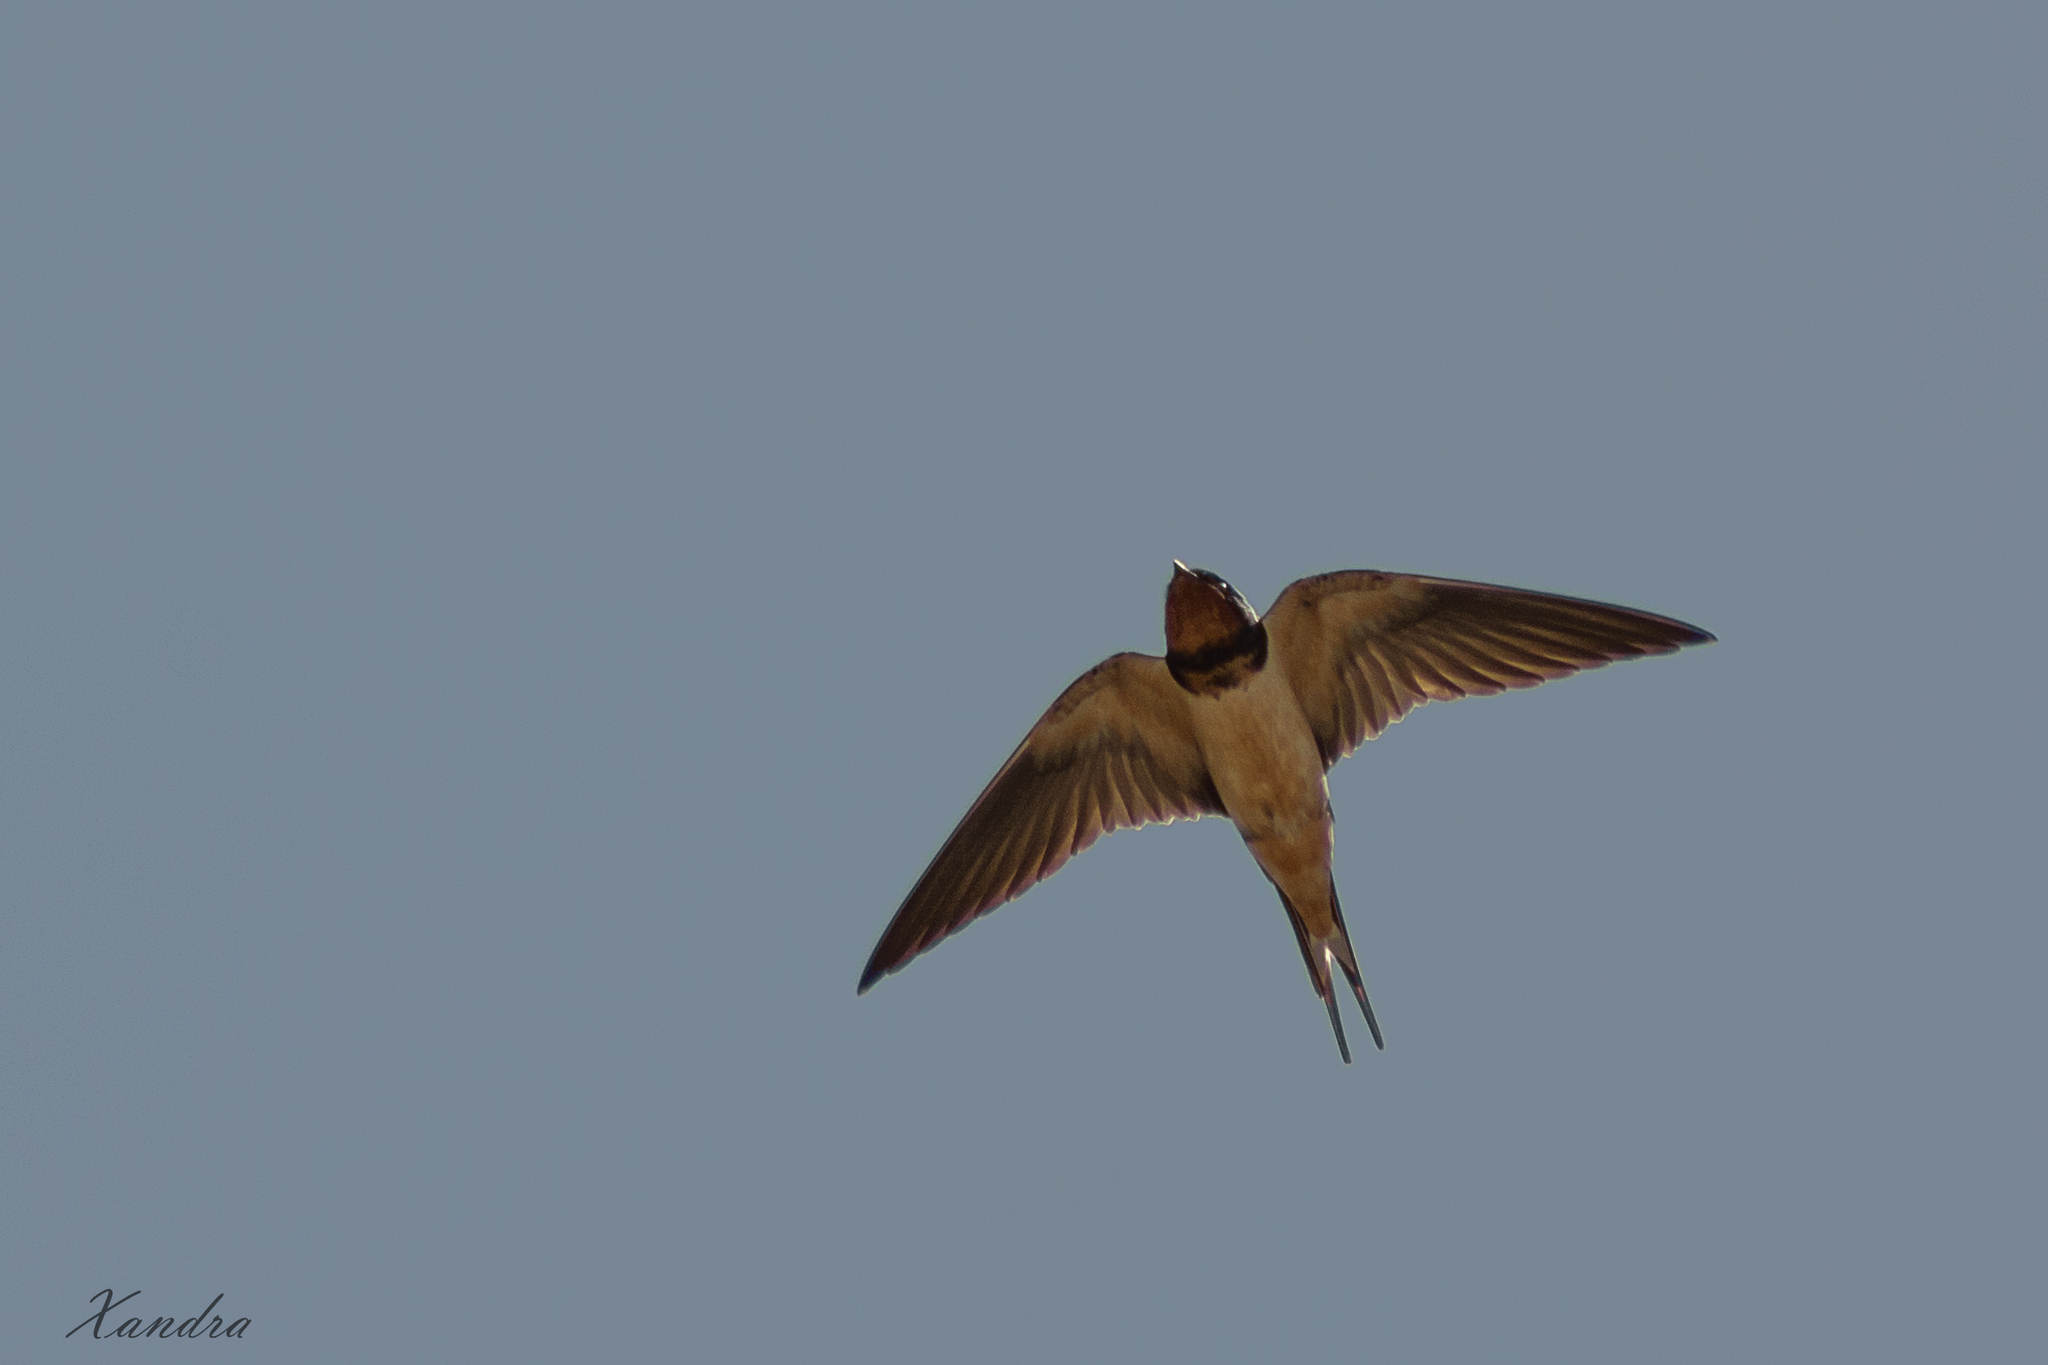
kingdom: Animalia
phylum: Chordata
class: Aves
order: Passeriformes
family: Hirundinidae
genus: Hirundo
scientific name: Hirundo rustica
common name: Barn swallow
